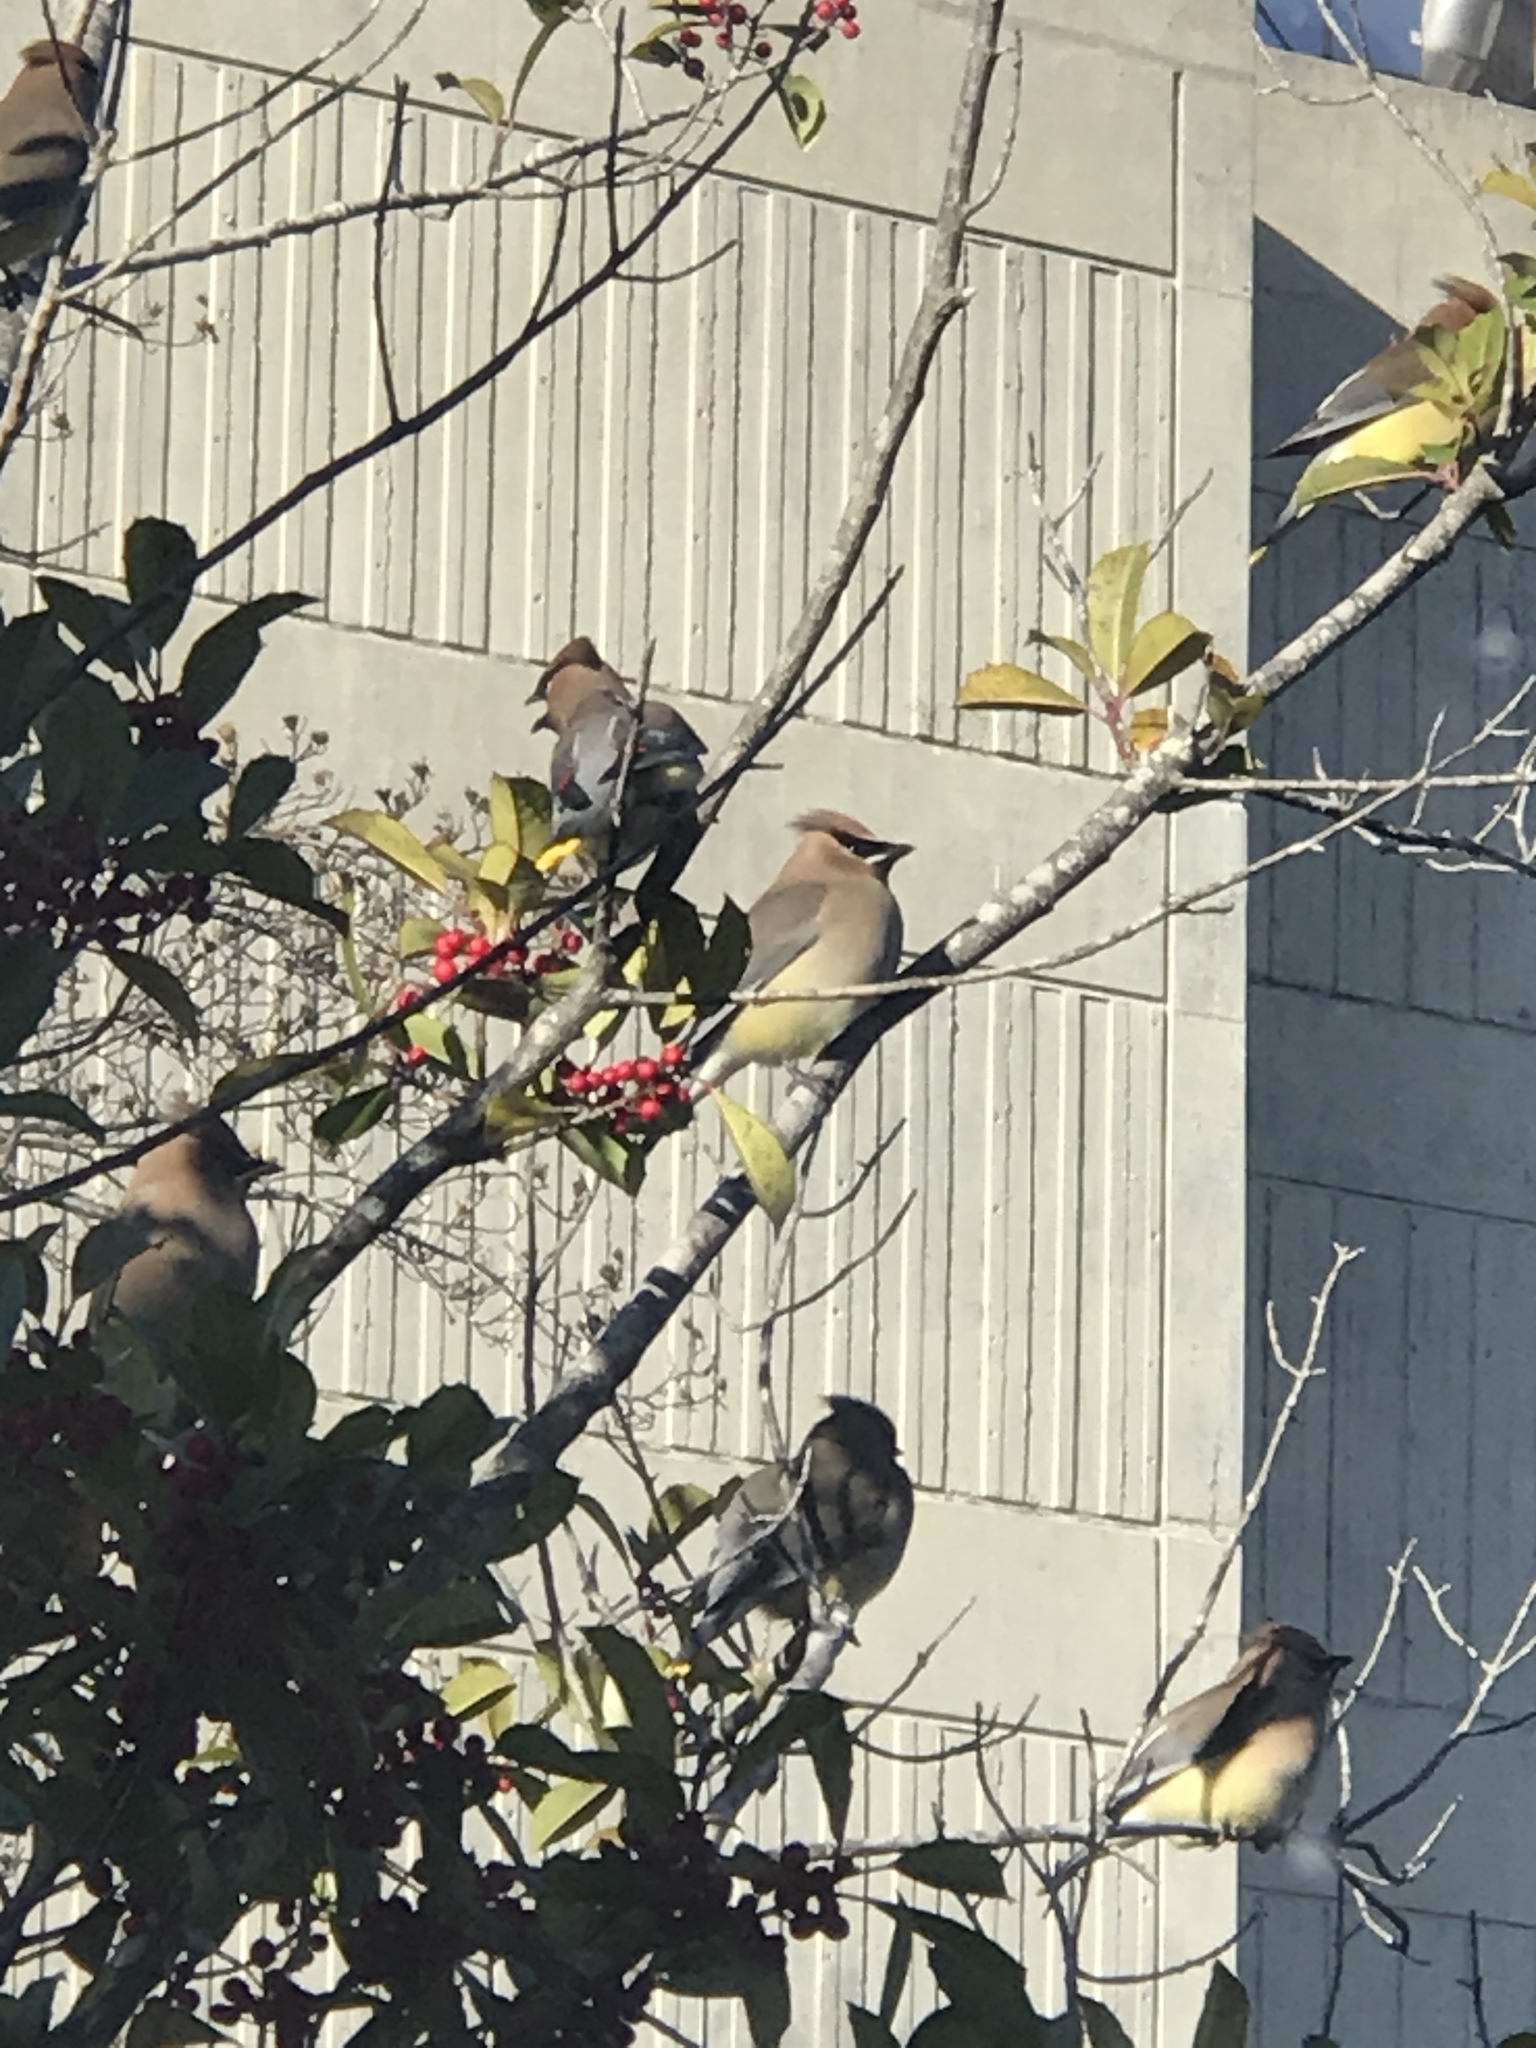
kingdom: Animalia
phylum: Chordata
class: Aves
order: Passeriformes
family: Bombycillidae
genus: Bombycilla
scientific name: Bombycilla cedrorum
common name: Cedar waxwing
